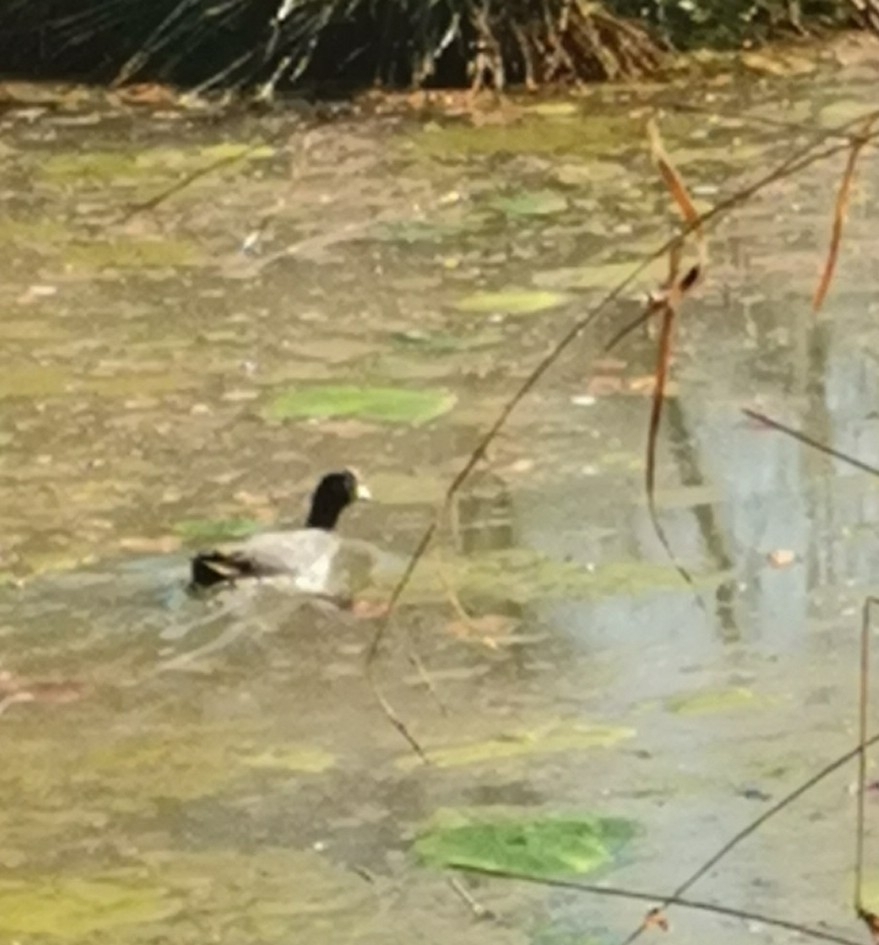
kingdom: Animalia
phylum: Chordata
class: Aves
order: Gruiformes
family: Rallidae
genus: Fulica
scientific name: Fulica atra
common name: Eurasian coot
